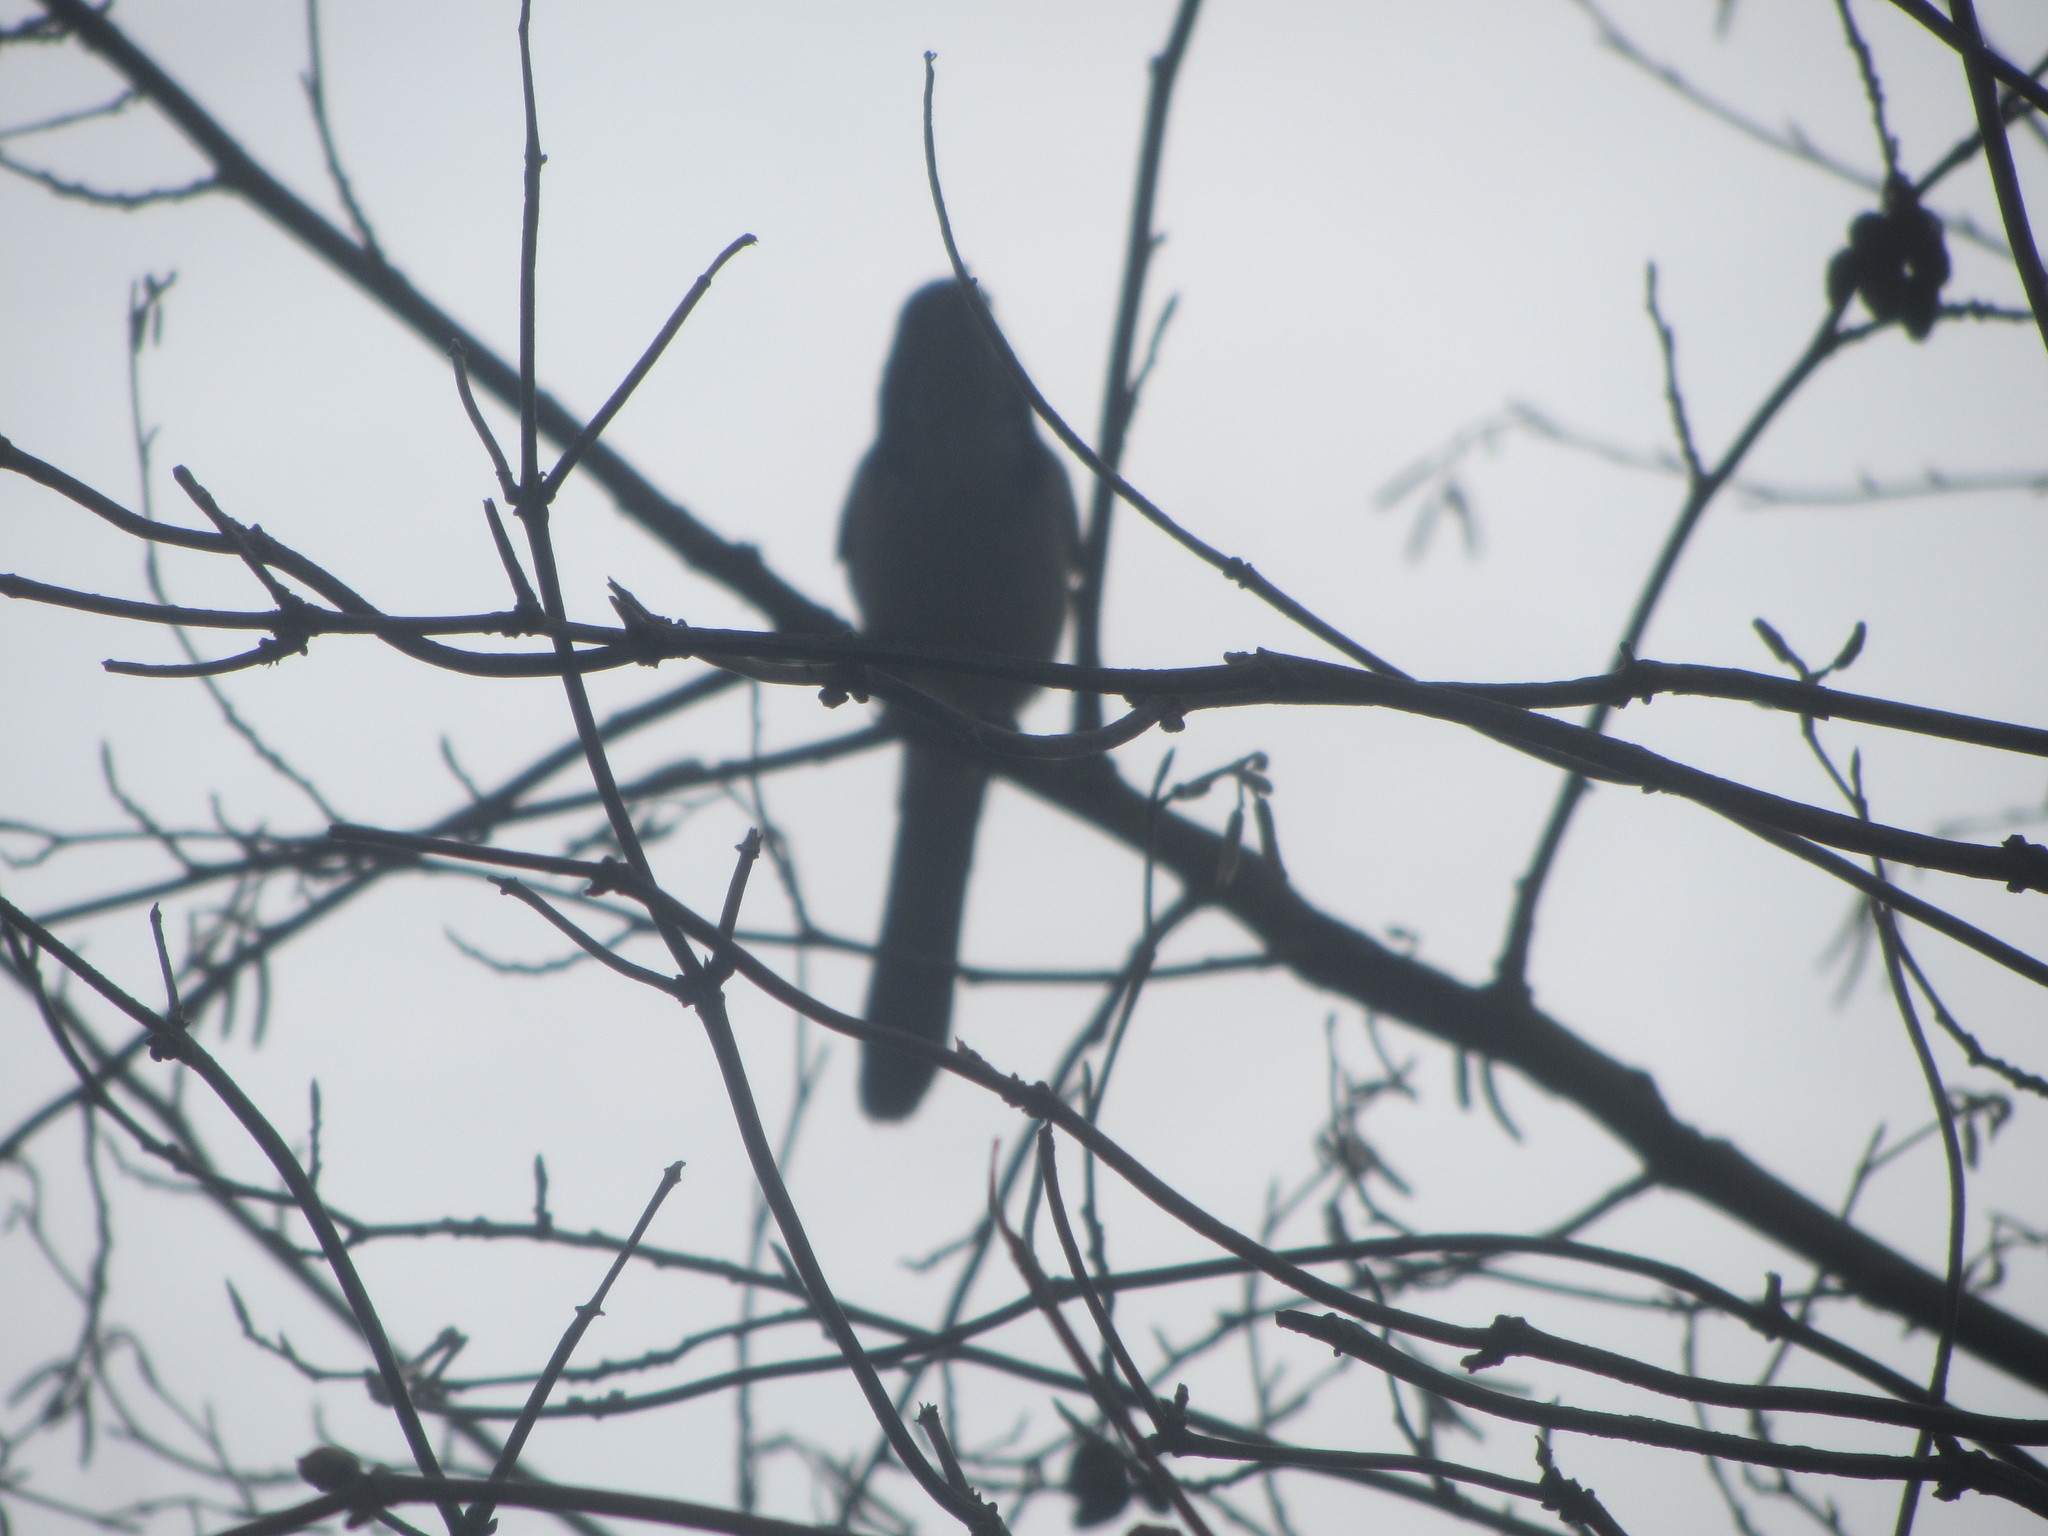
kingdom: Animalia
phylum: Chordata
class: Aves
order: Passeriformes
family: Corvidae
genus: Aphelocoma
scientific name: Aphelocoma californica
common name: California scrub-jay
